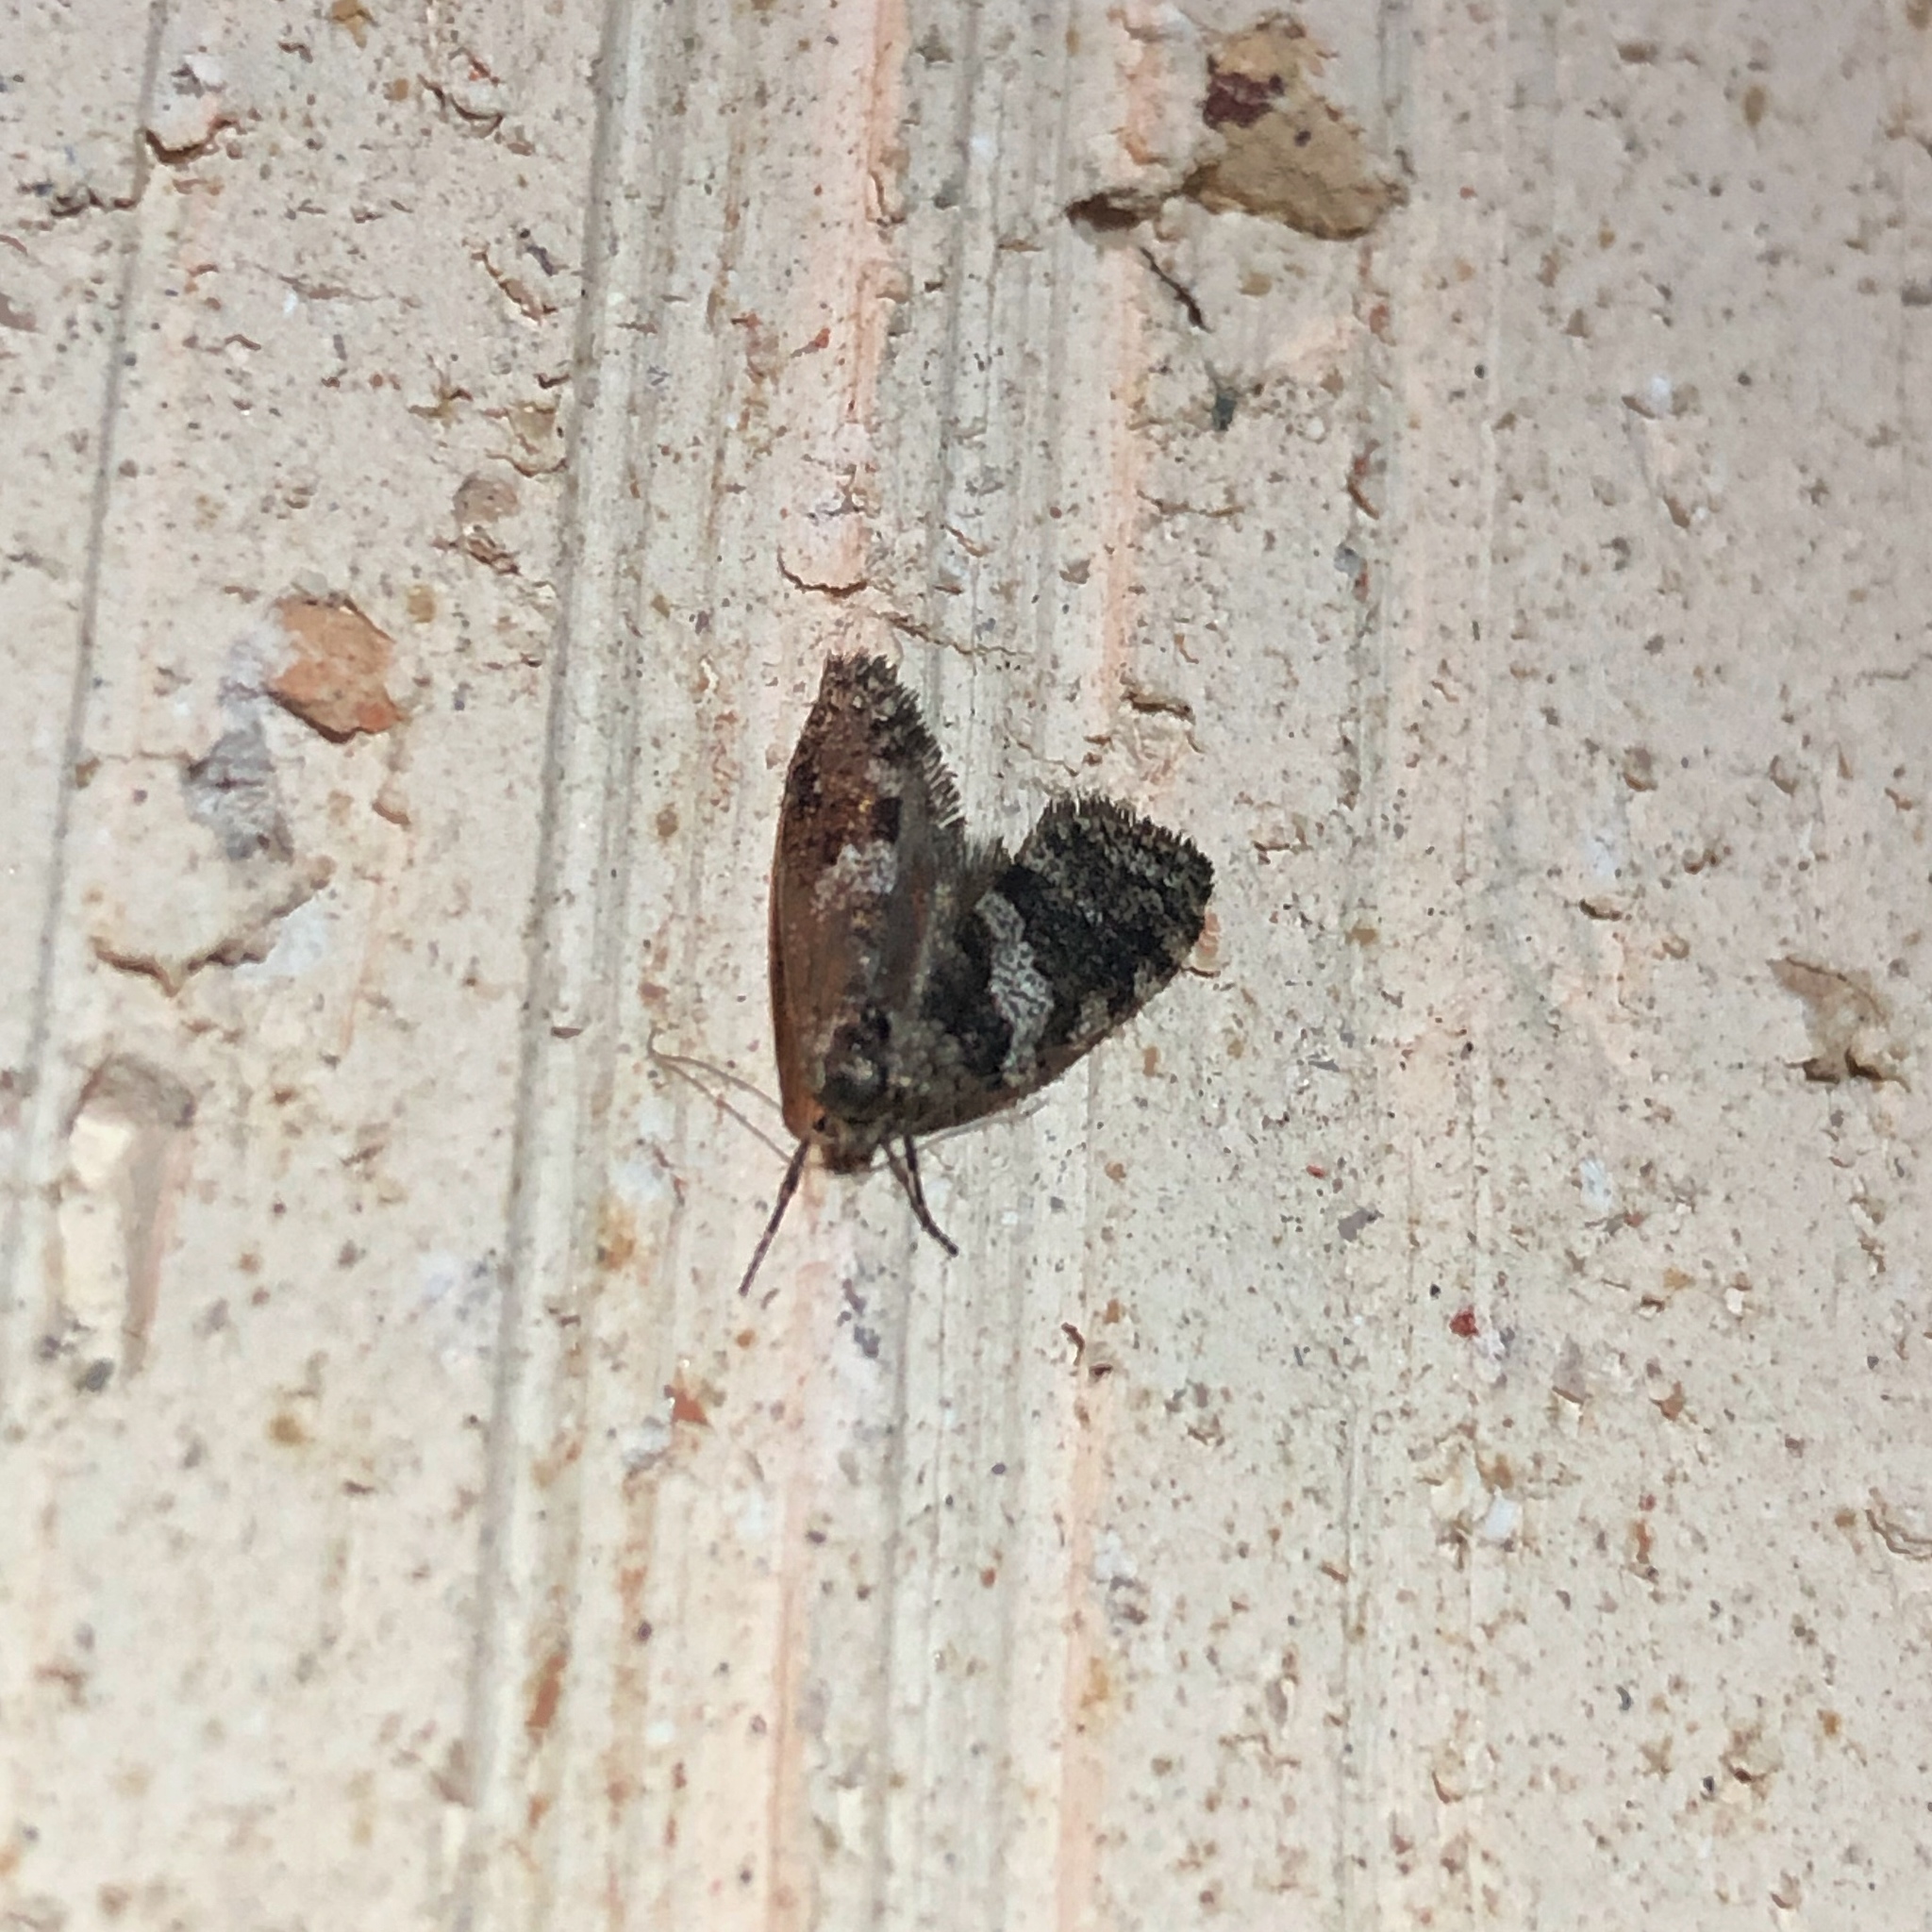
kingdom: Animalia
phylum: Arthropoda
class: Insecta
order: Lepidoptera
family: Psychidae
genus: Lepidoscia
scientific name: Lepidoscia heliochares
